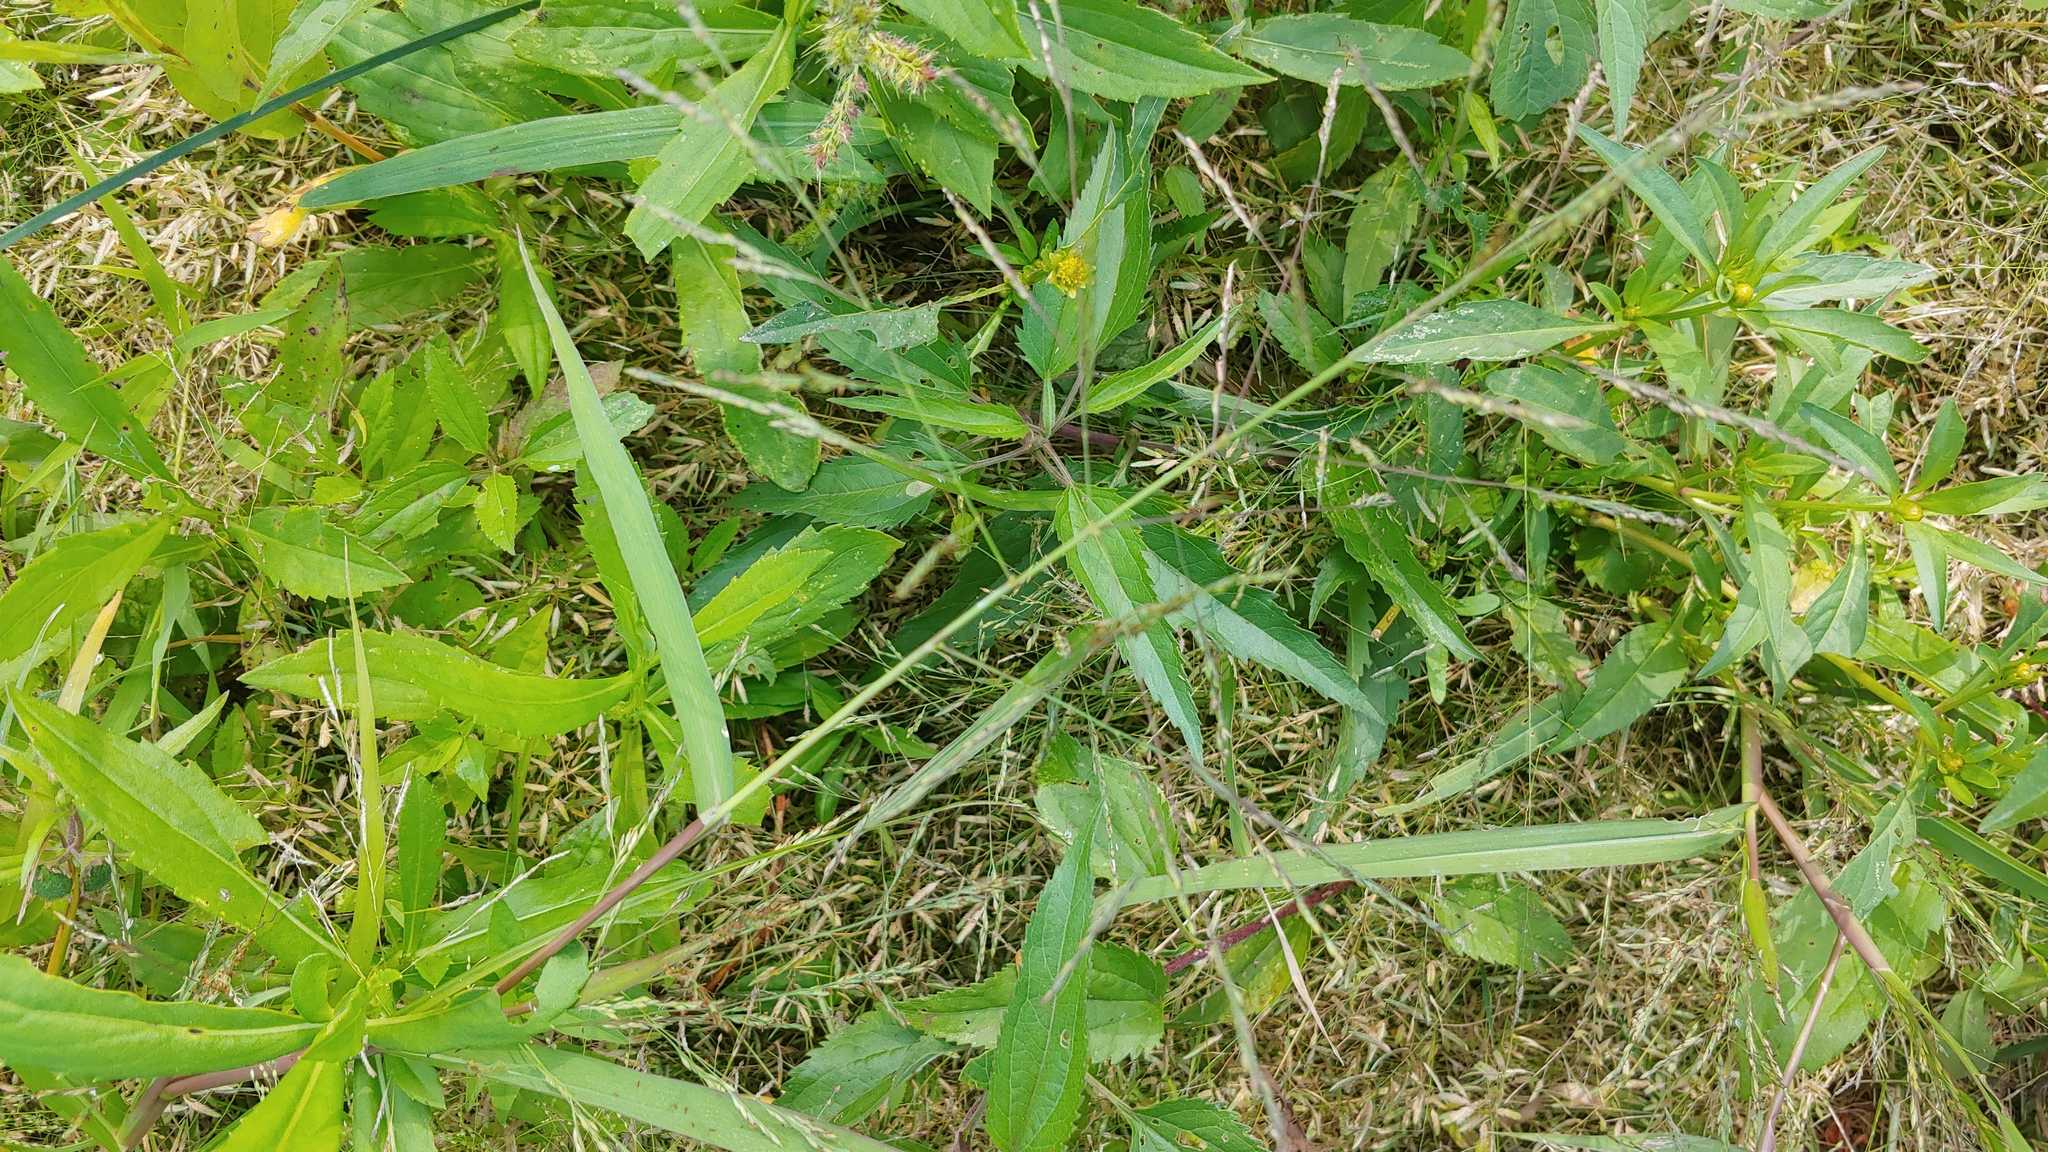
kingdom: Plantae
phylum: Tracheophyta
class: Liliopsida
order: Poales
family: Poaceae
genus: Panicum
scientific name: Panicum dichotomiflorum
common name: Autumn millet
